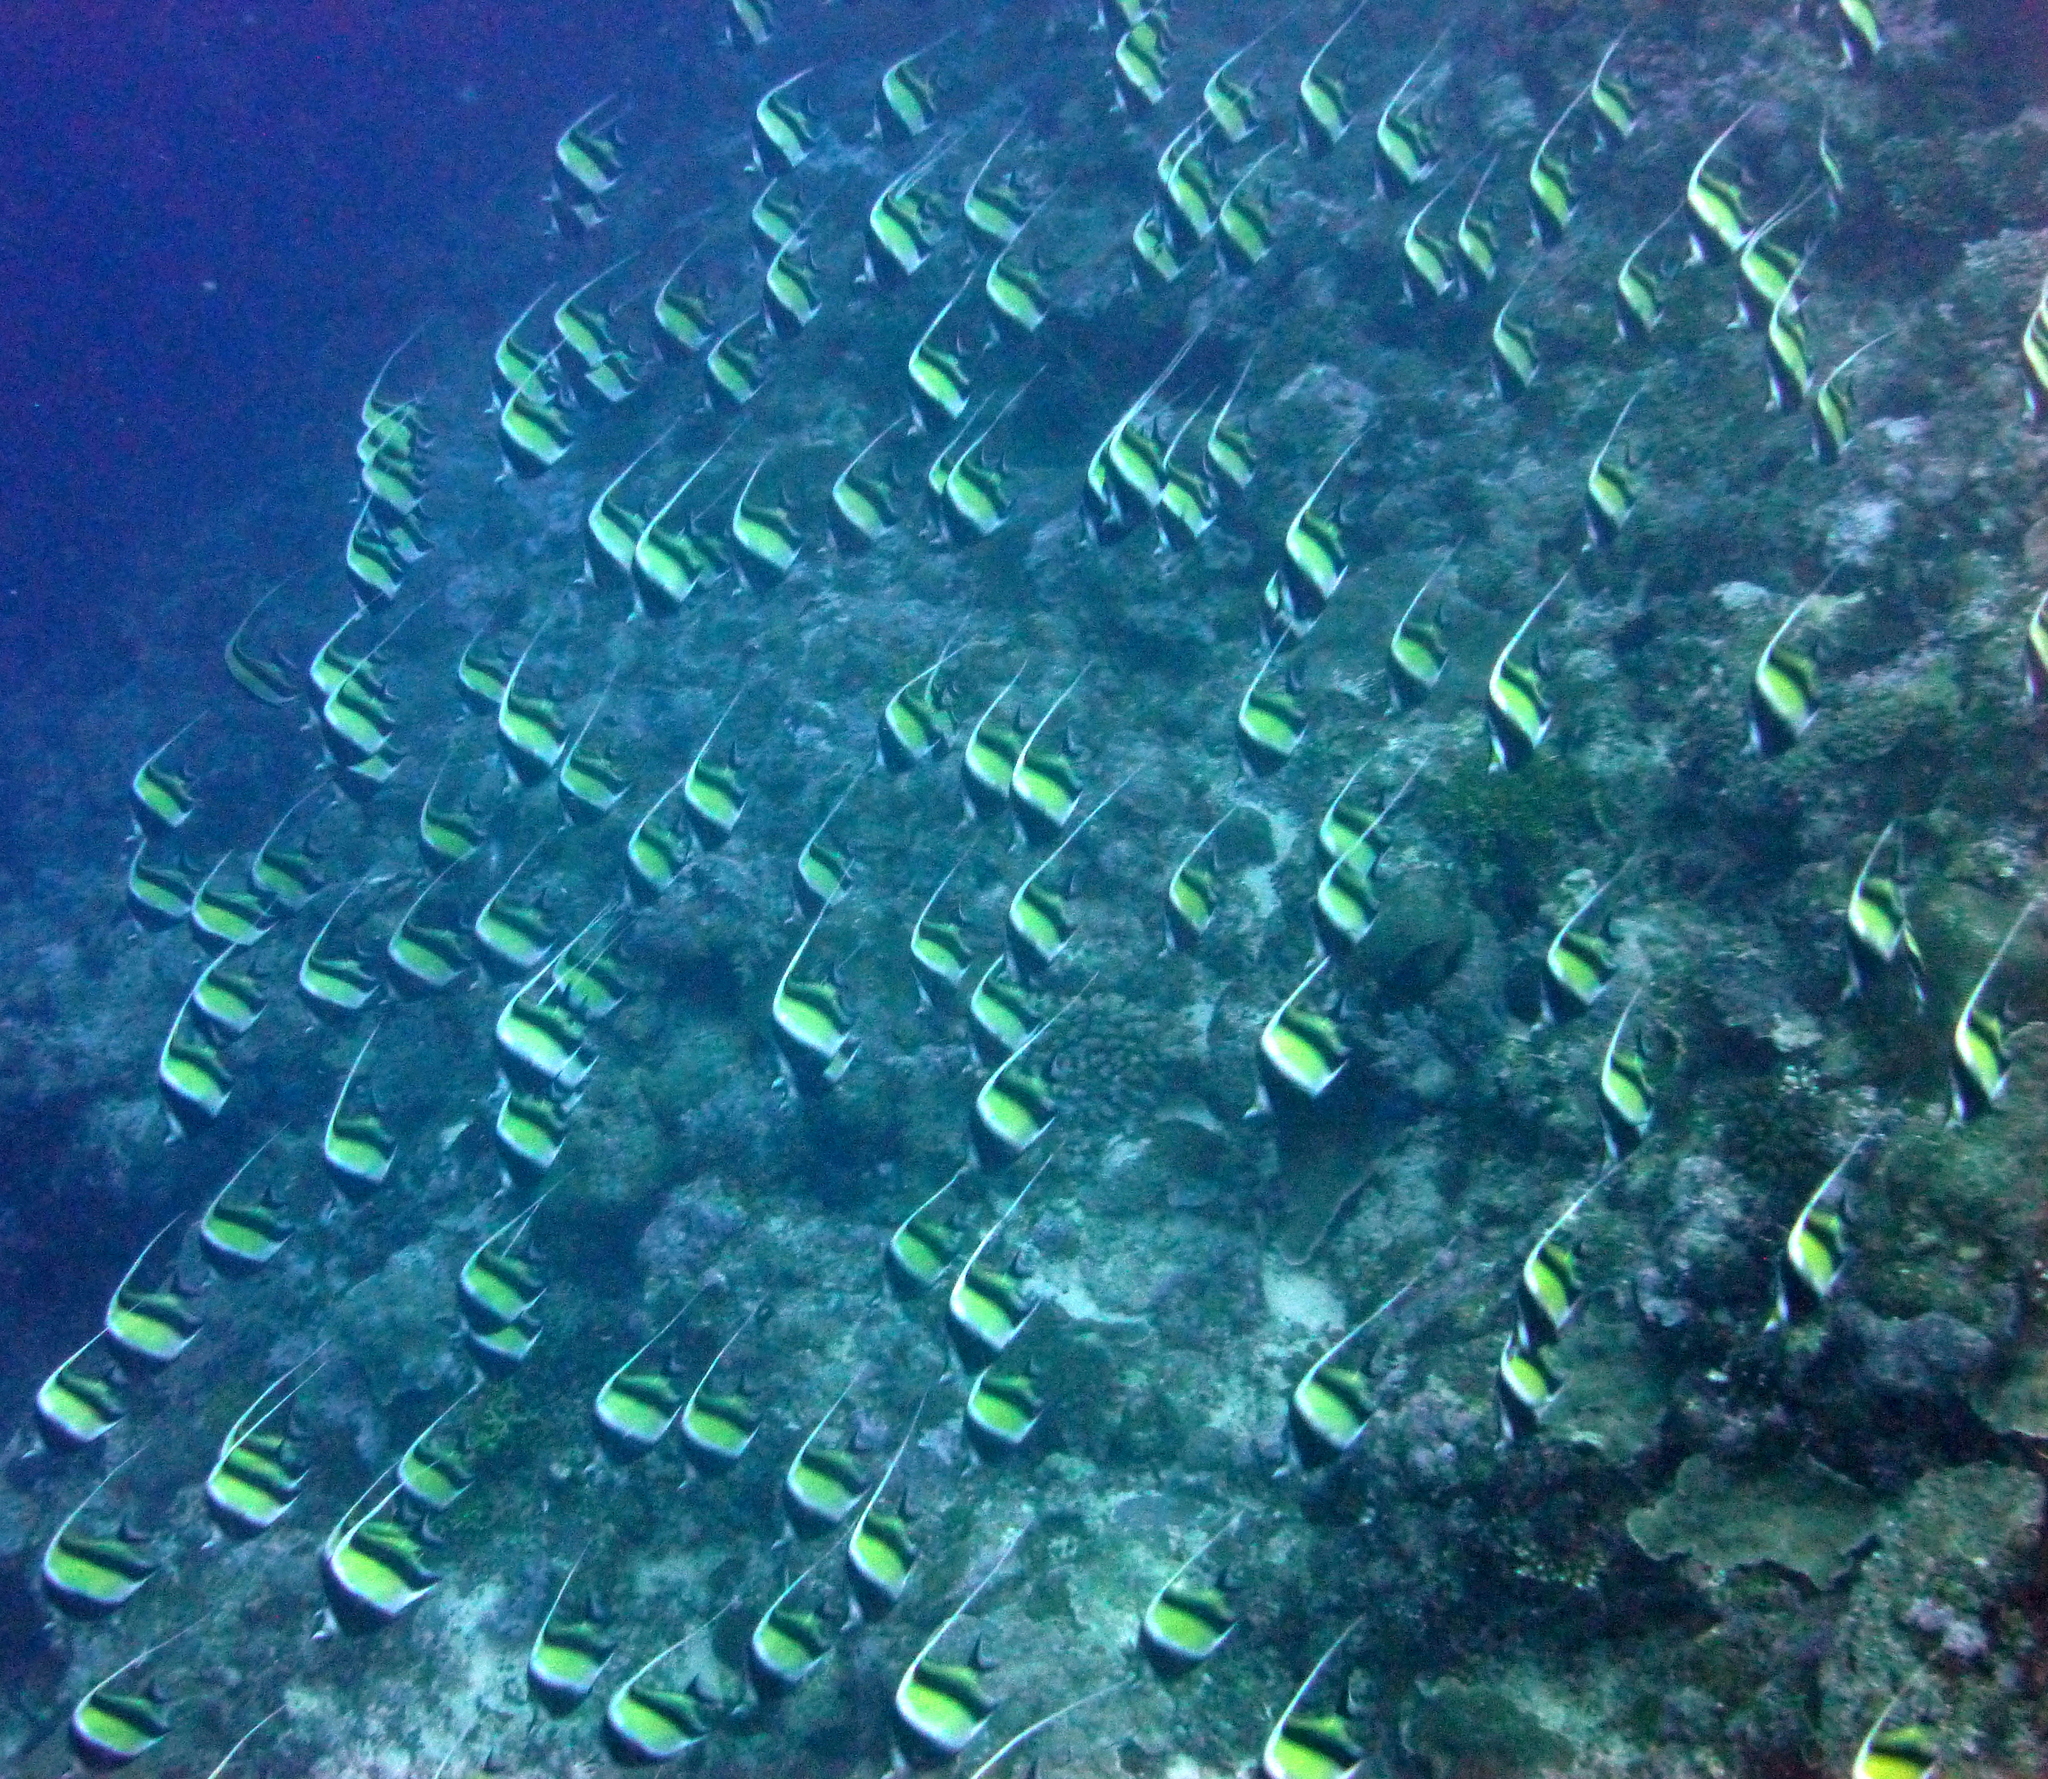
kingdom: Animalia
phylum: Chordata
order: Perciformes
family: Zanclidae
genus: Zanclus
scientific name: Zanclus cornutus
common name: Moorish idol
